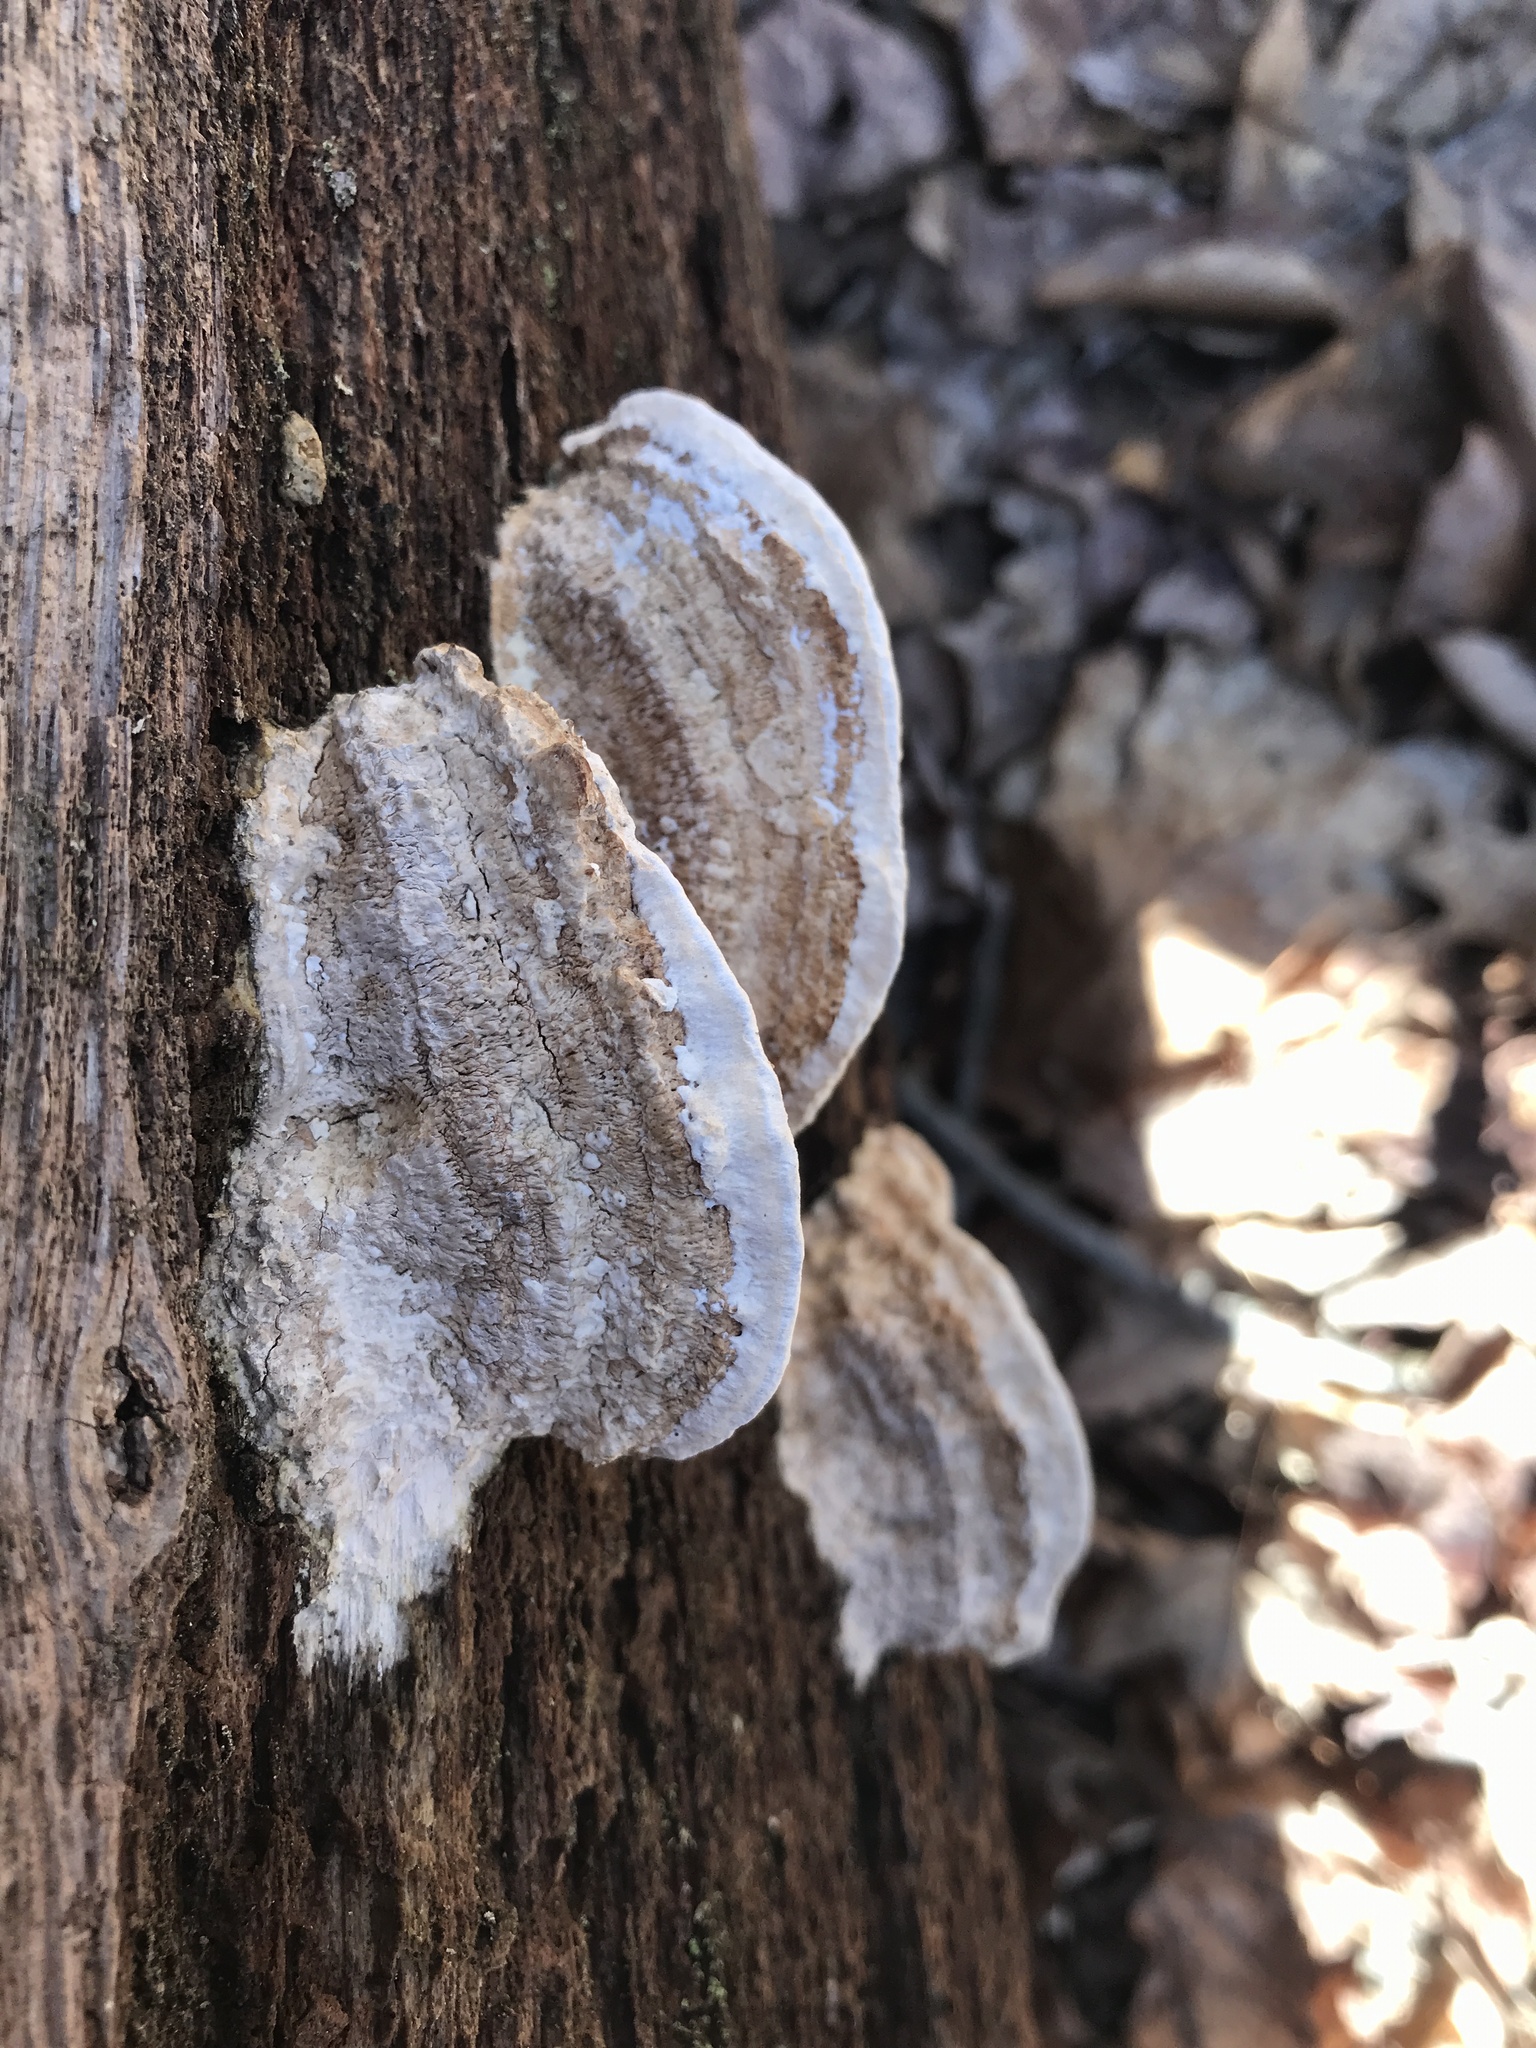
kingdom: Fungi
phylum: Basidiomycota
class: Agaricomycetes
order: Polyporales
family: Fomitopsidaceae
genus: Fomitopsis
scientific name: Fomitopsis
